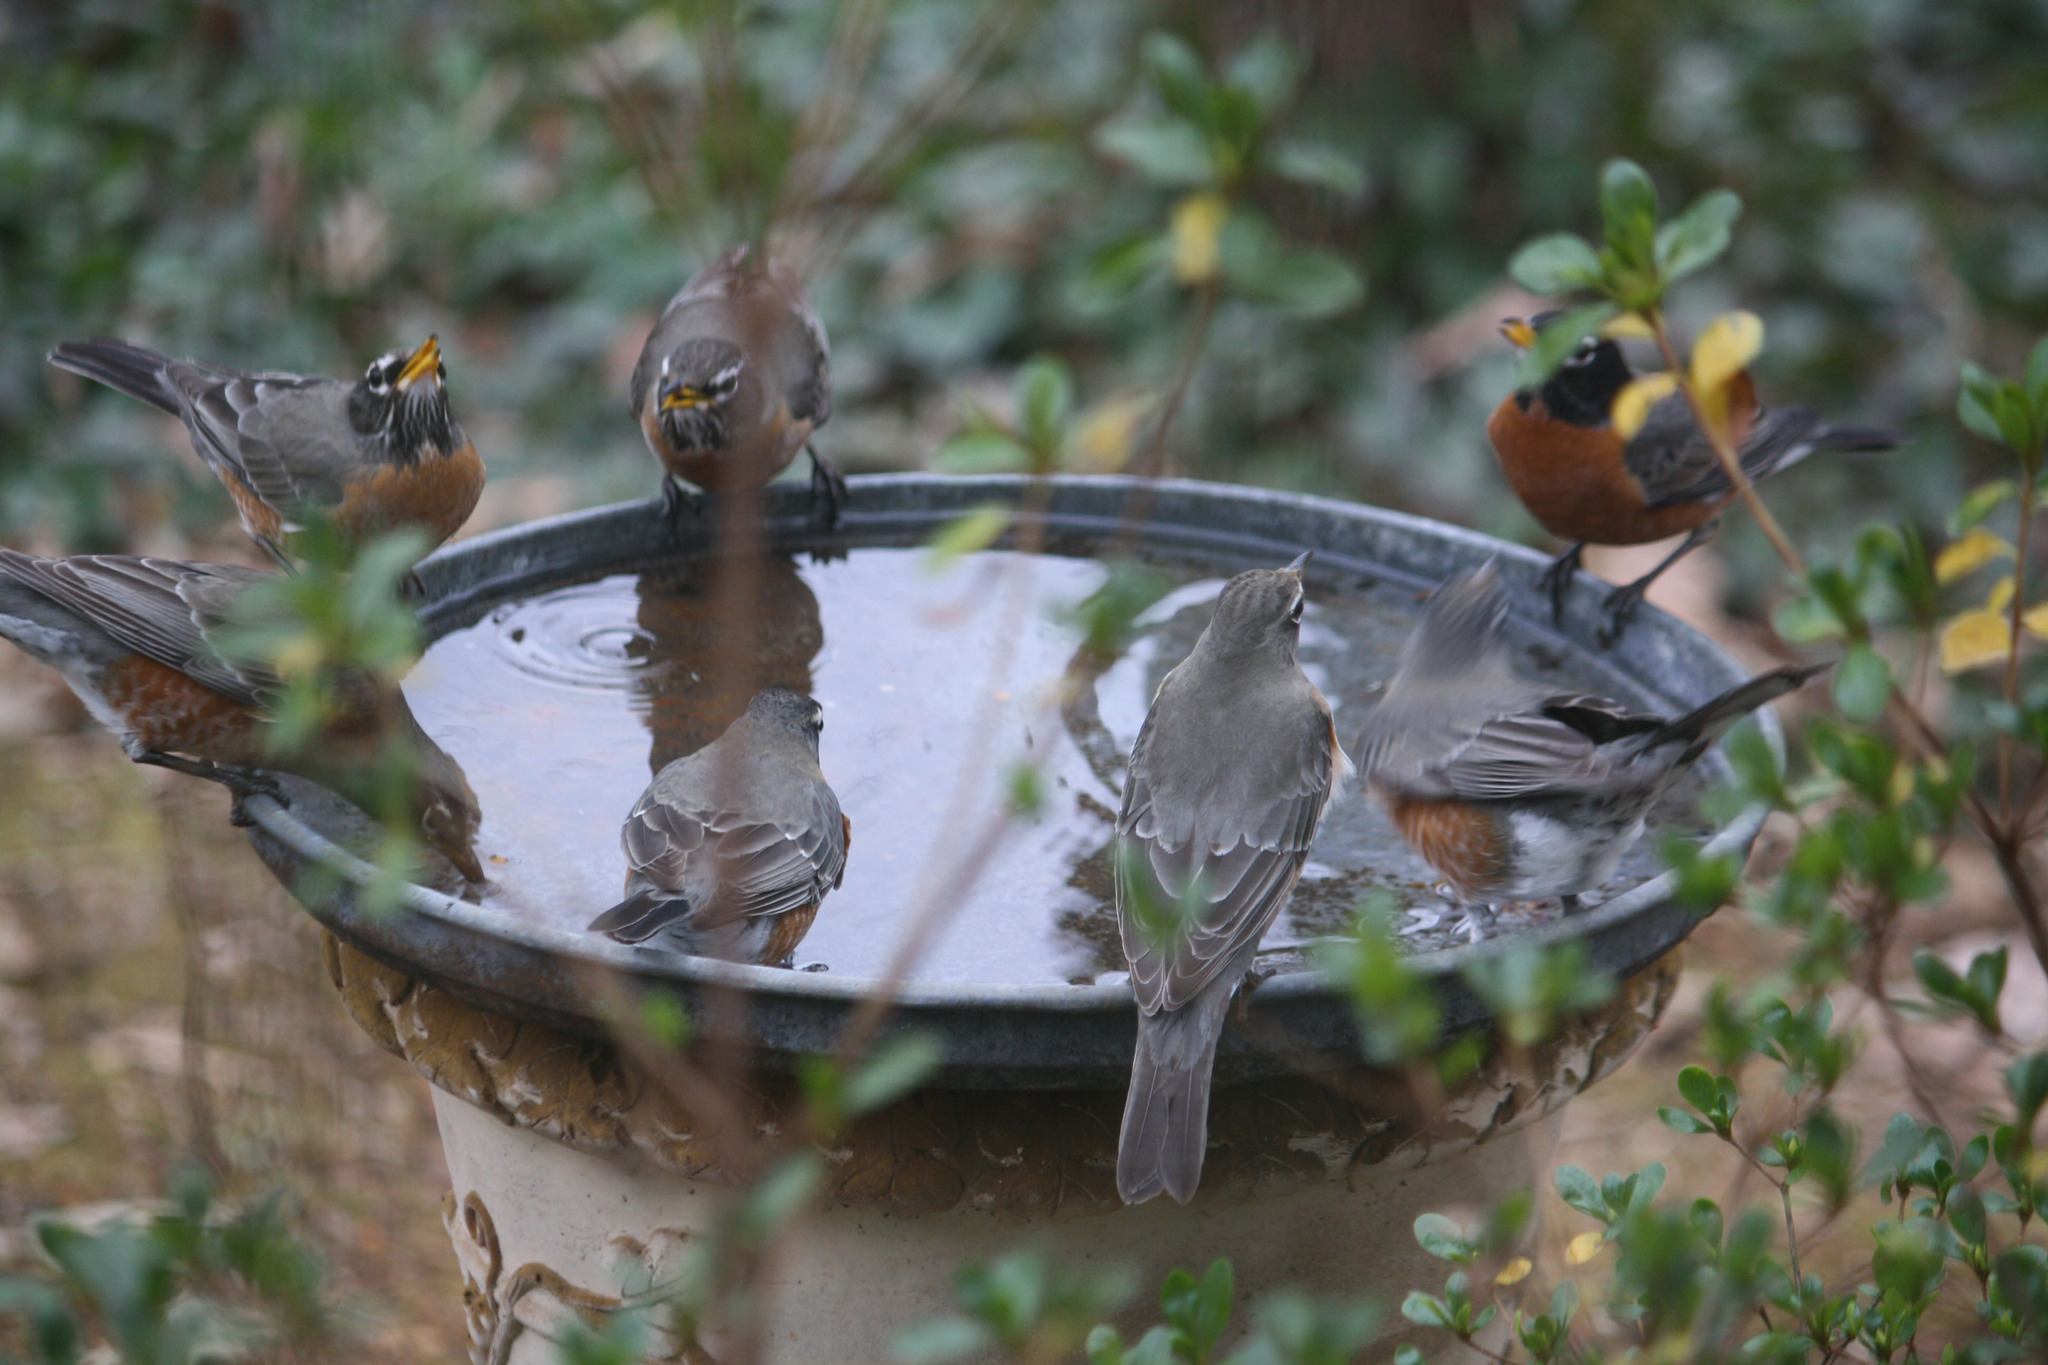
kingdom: Animalia
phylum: Chordata
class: Aves
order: Passeriformes
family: Turdidae
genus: Turdus
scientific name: Turdus migratorius
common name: American robin
